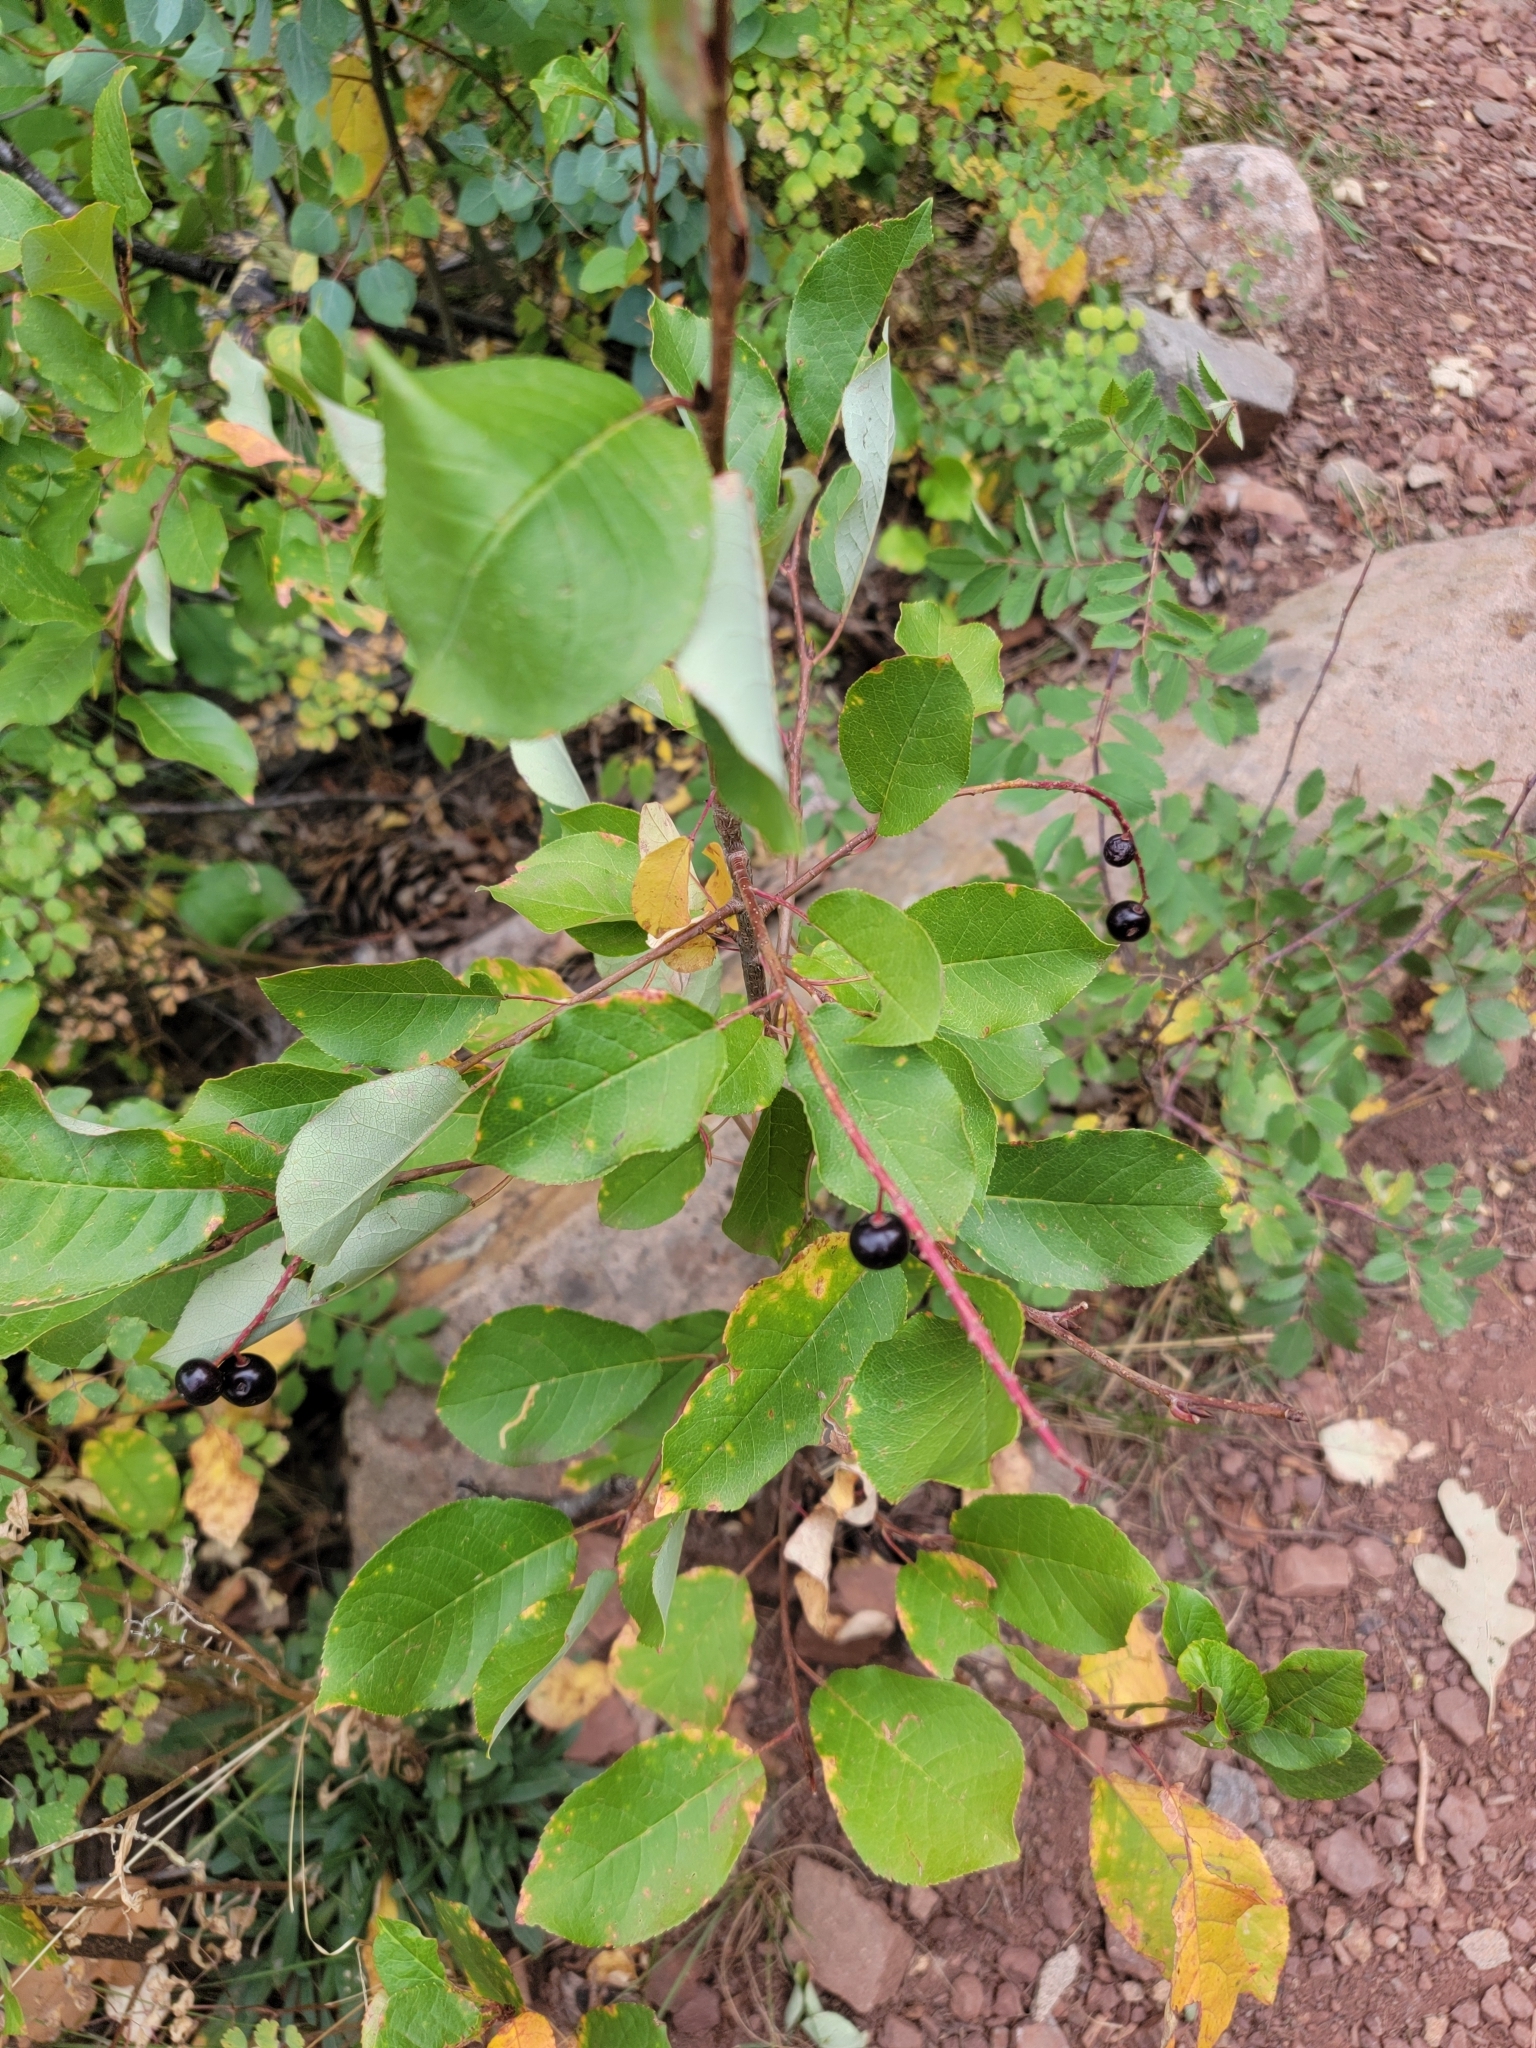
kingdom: Plantae
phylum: Tracheophyta
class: Magnoliopsida
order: Rosales
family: Rosaceae
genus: Prunus
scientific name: Prunus virginiana
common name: Chokecherry
